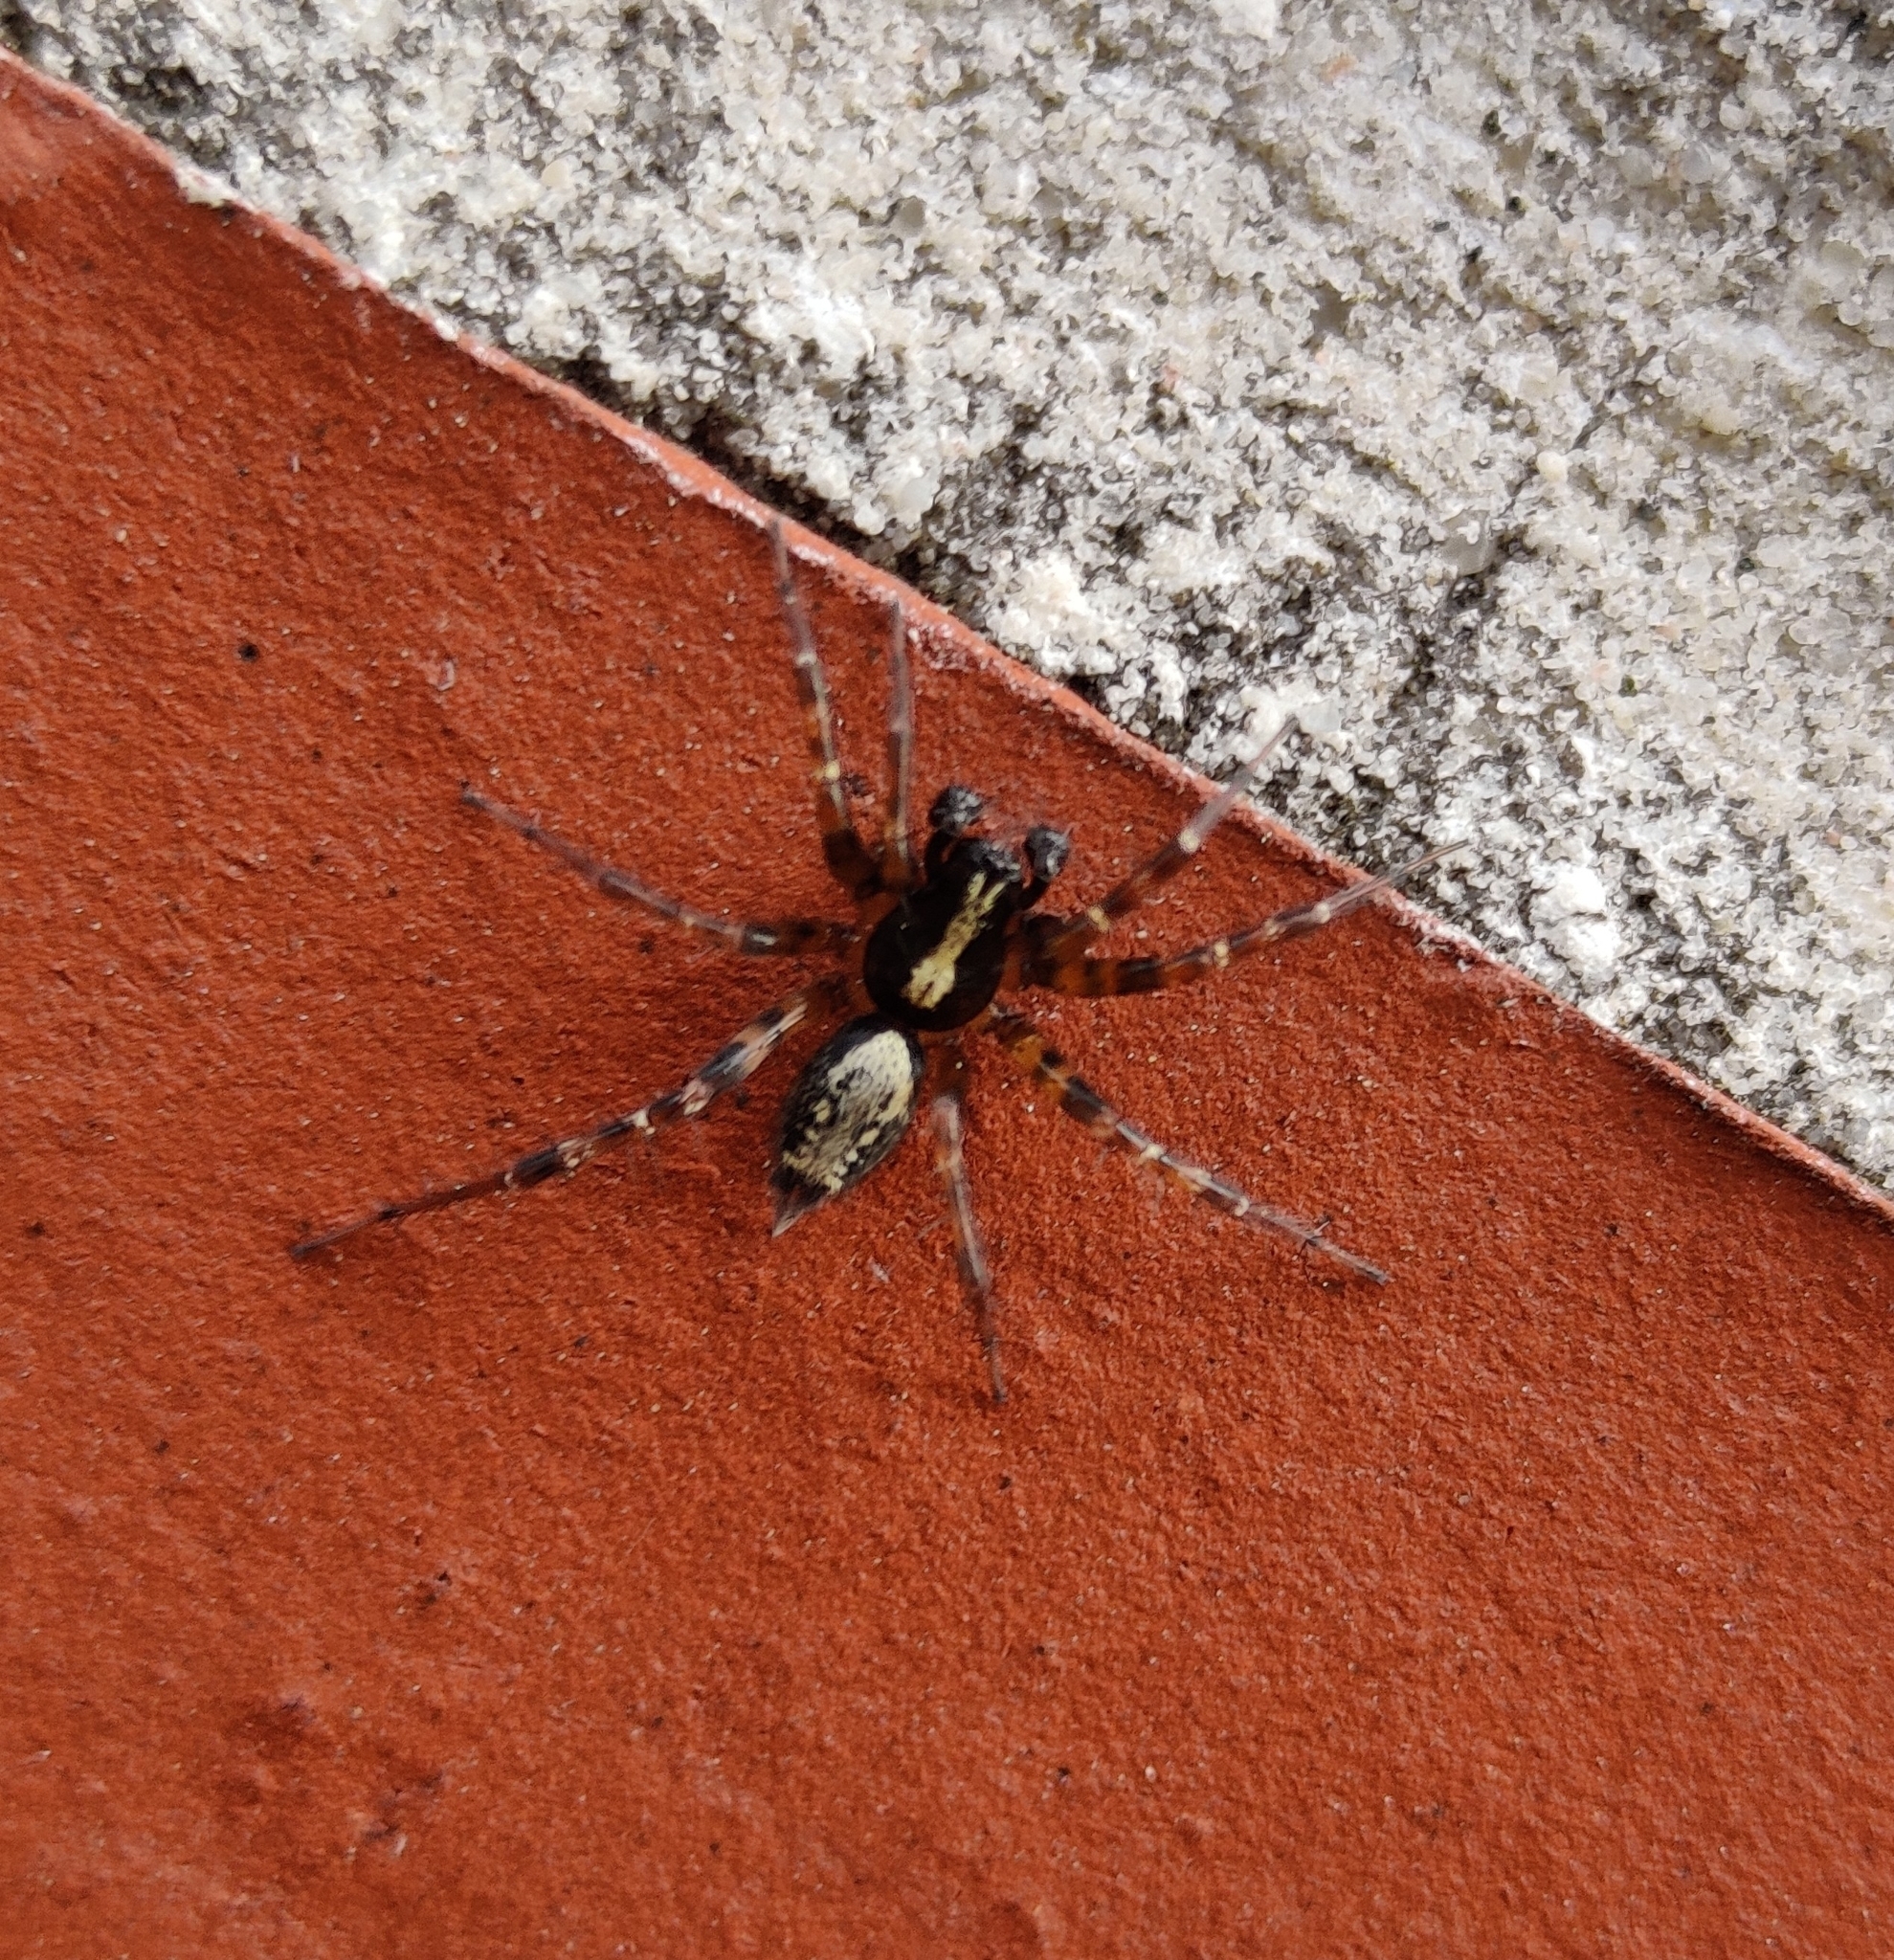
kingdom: Animalia
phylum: Arthropoda
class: Arachnida
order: Araneae
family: Agelenidae
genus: Textrix
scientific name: Textrix denticulata
